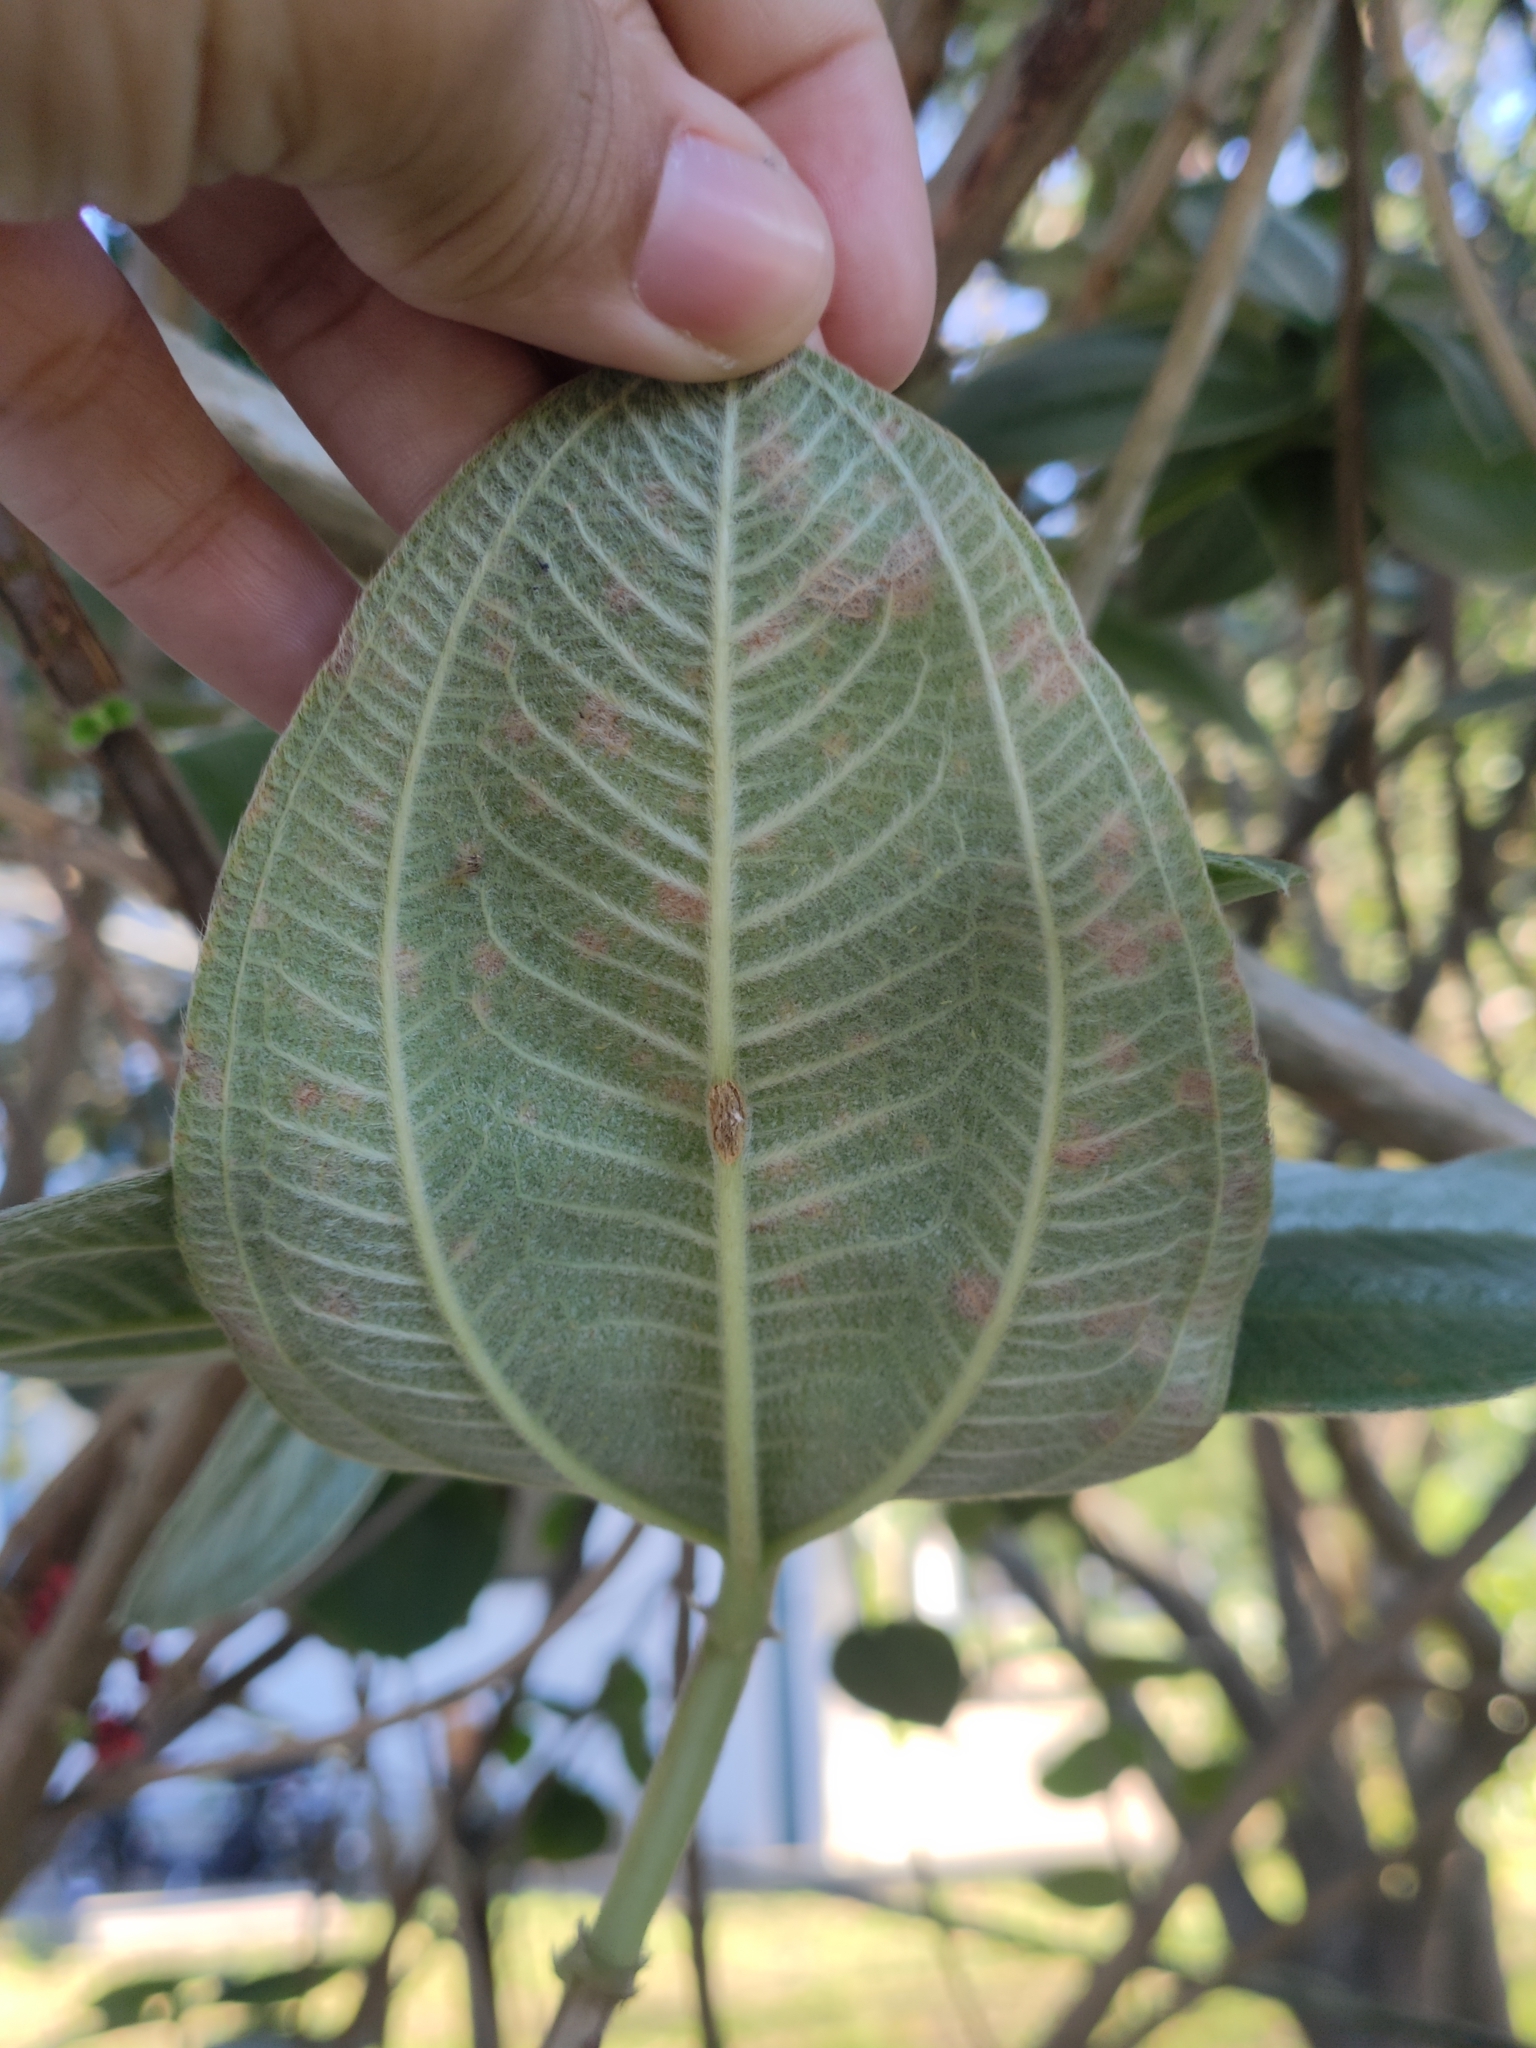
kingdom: Plantae
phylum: Tracheophyta
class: Magnoliopsida
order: Myrtales
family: Melastomataceae
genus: Pleroma
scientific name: Pleroma heteromallum
